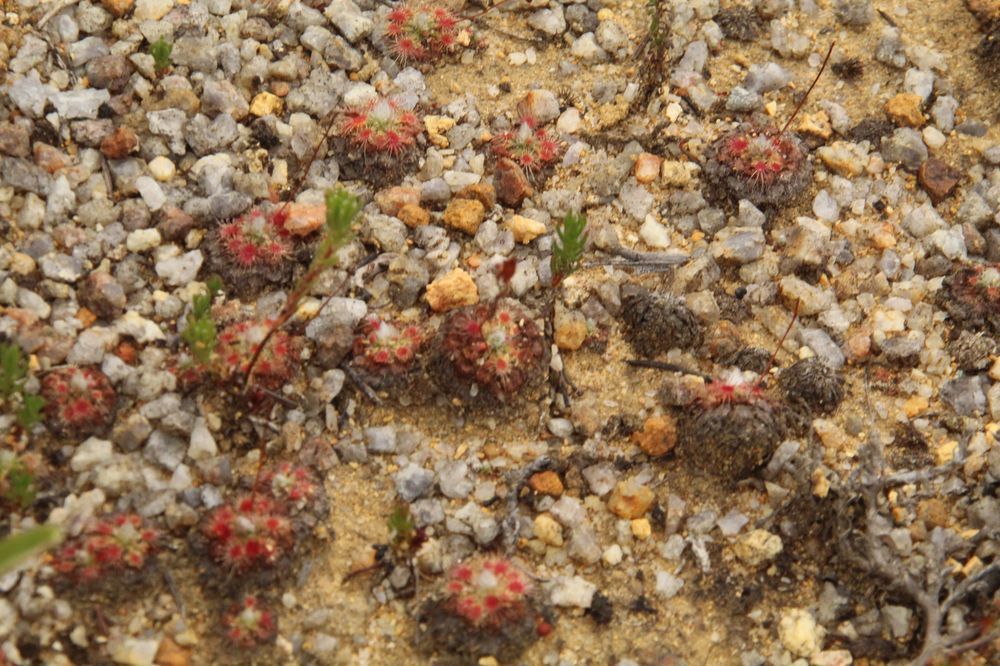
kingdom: Plantae
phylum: Tracheophyta
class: Magnoliopsida
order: Caryophyllales
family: Droseraceae
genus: Drosera
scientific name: Drosera platystigma
